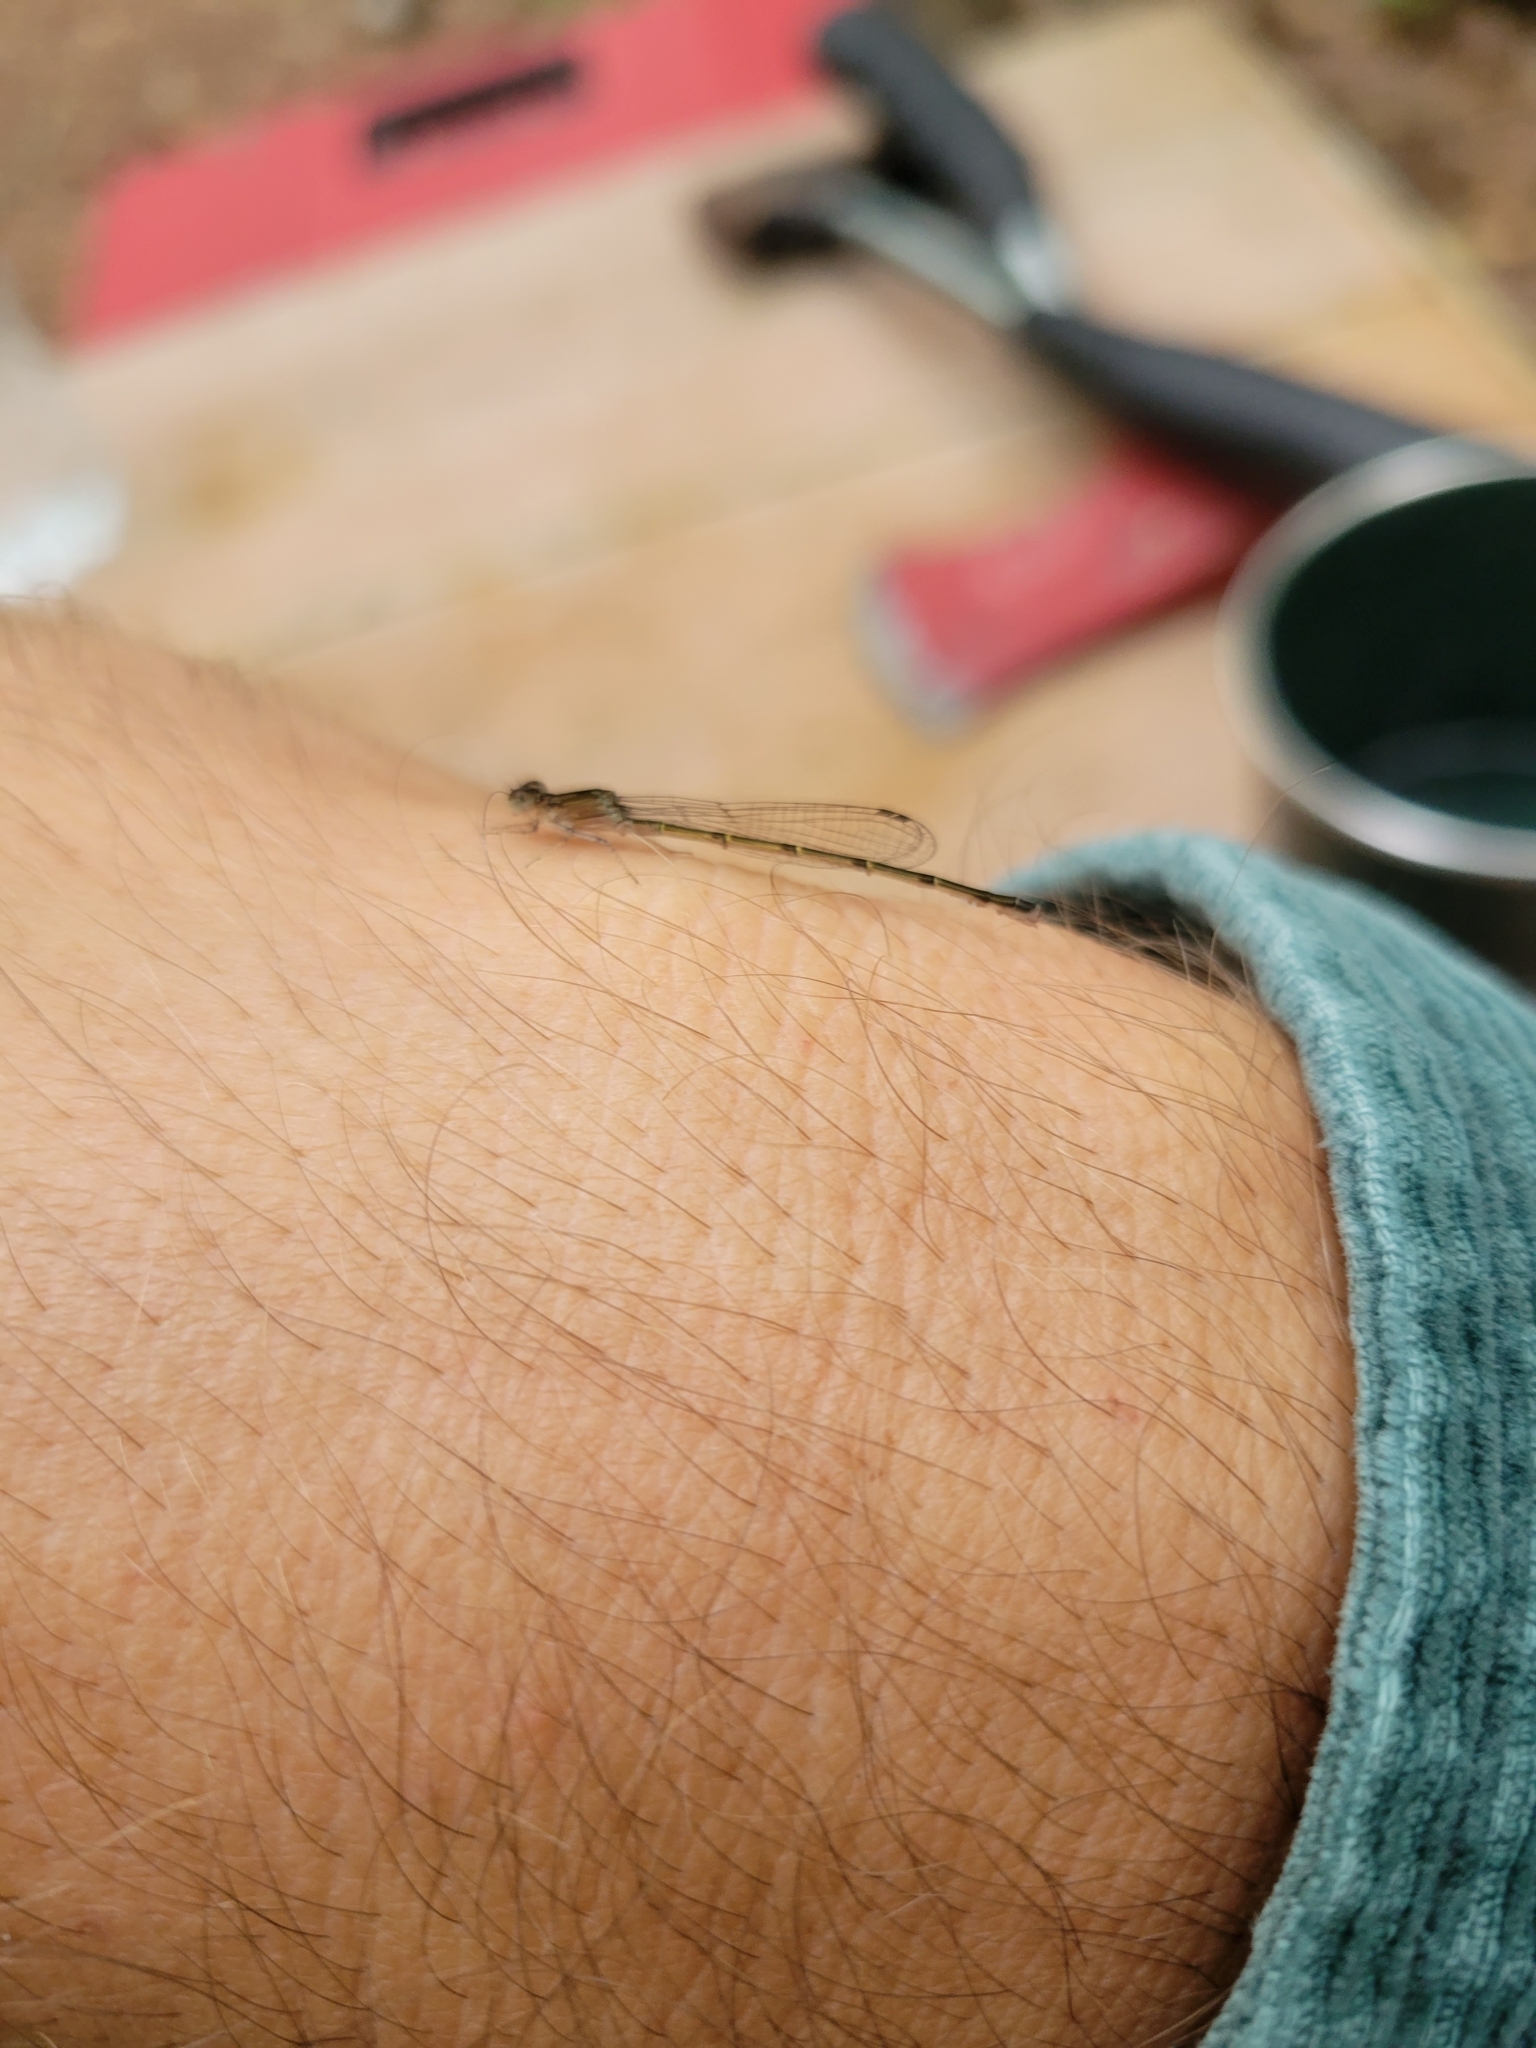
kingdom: Animalia
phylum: Arthropoda
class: Insecta
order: Odonata
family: Coenagrionidae
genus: Ischnura
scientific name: Ischnura posita
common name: Fragile forktail
